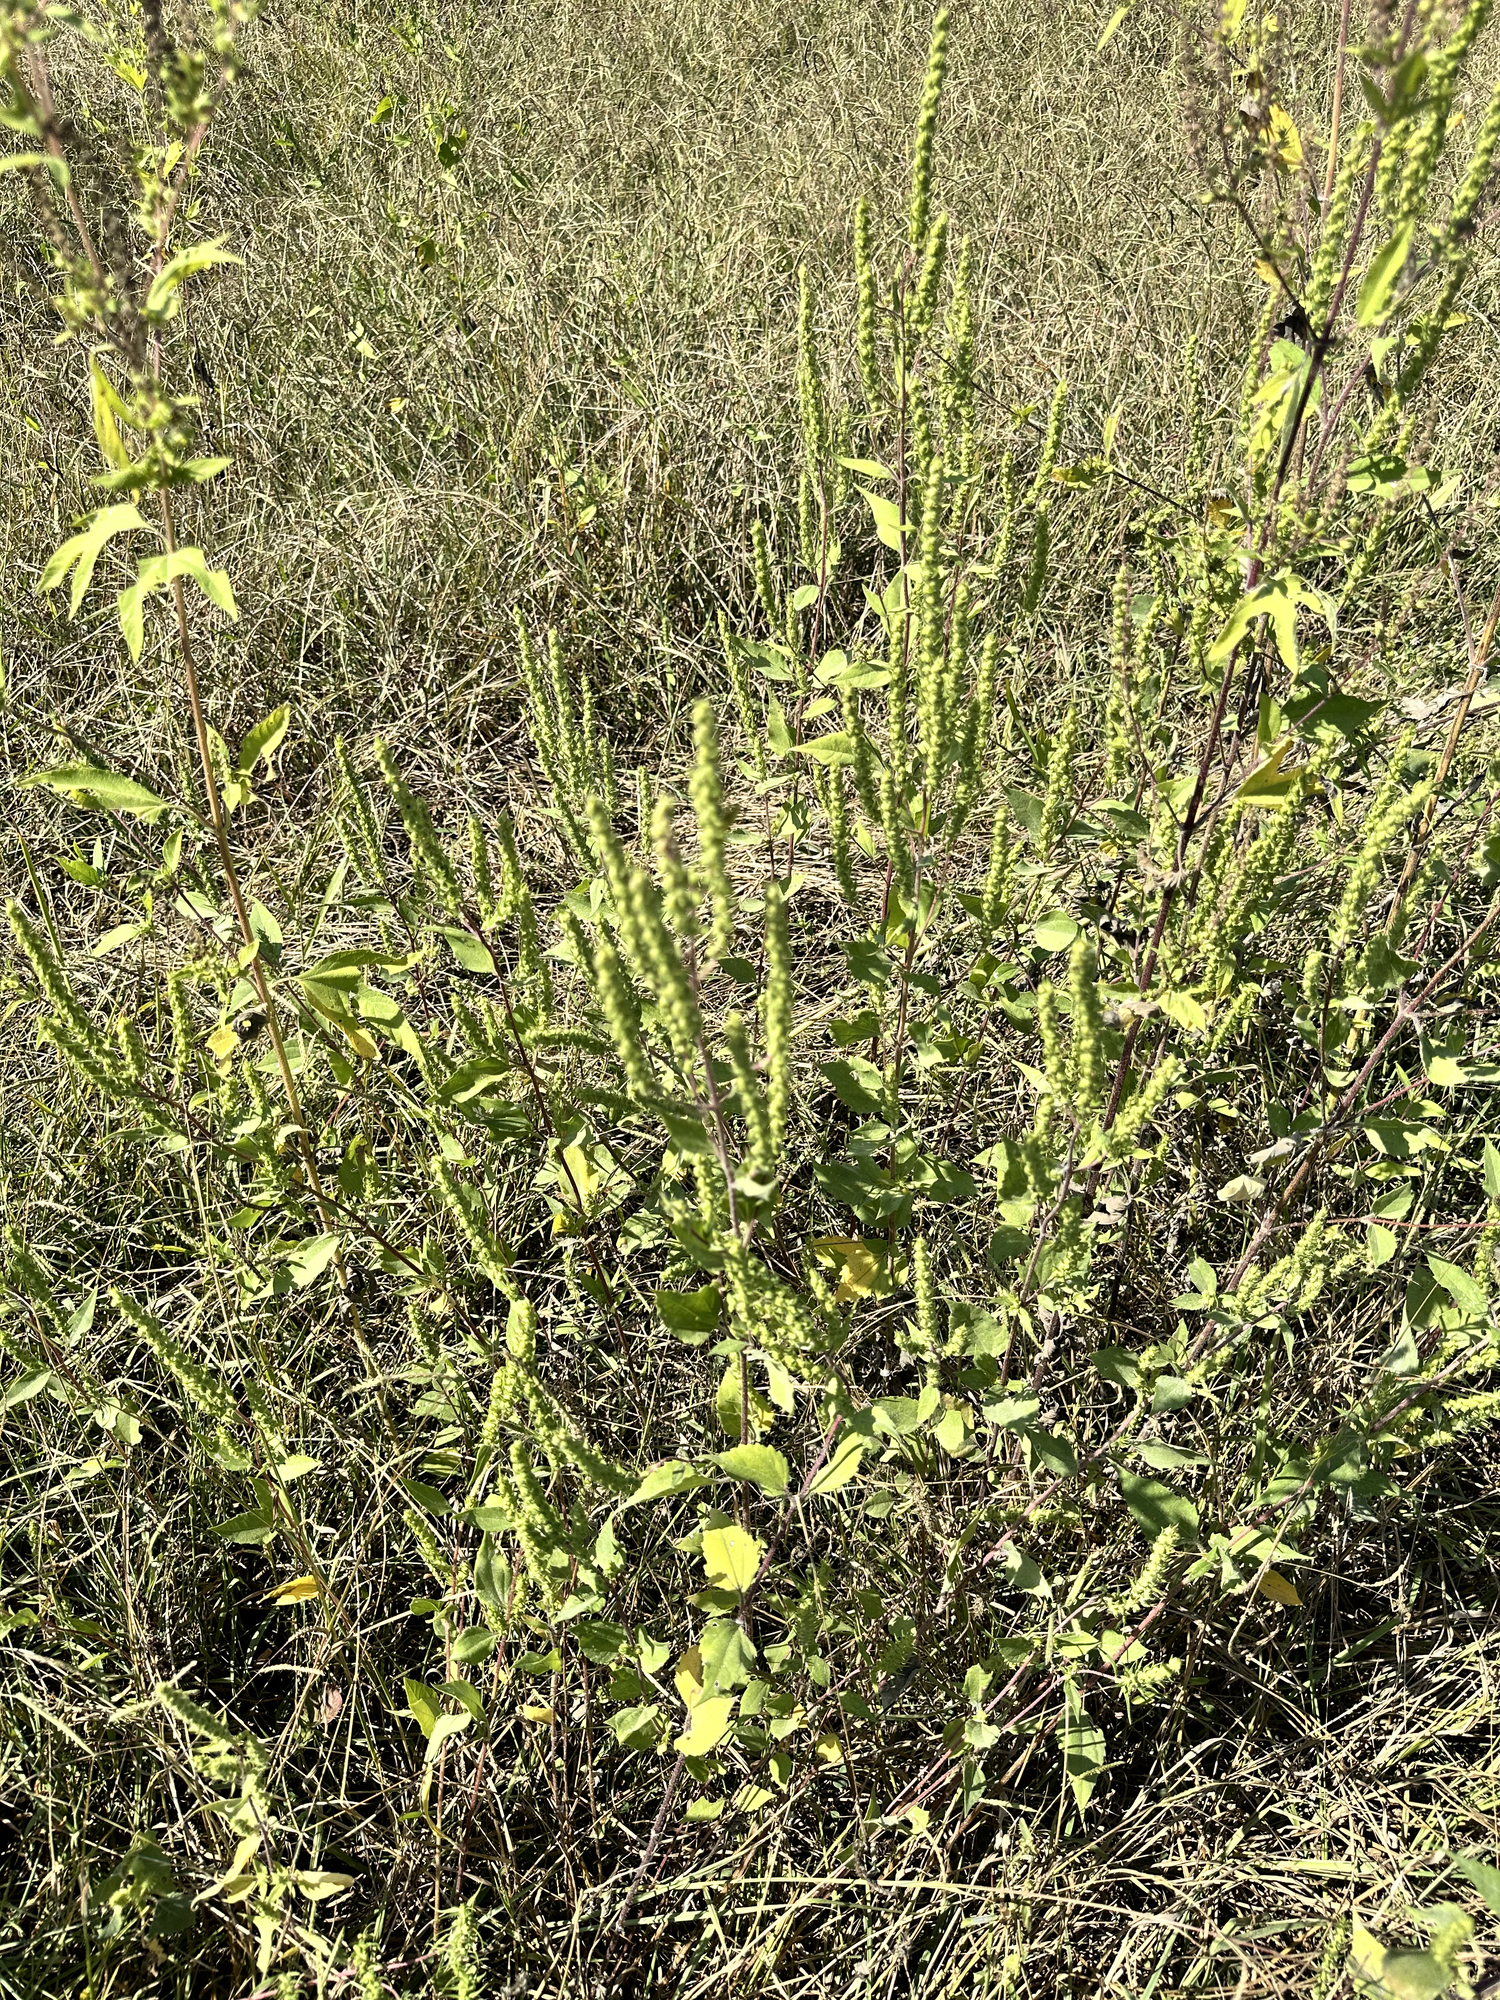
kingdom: Plantae
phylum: Tracheophyta
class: Magnoliopsida
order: Asterales
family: Asteraceae
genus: Iva
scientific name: Iva annua
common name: Marsh-elder
